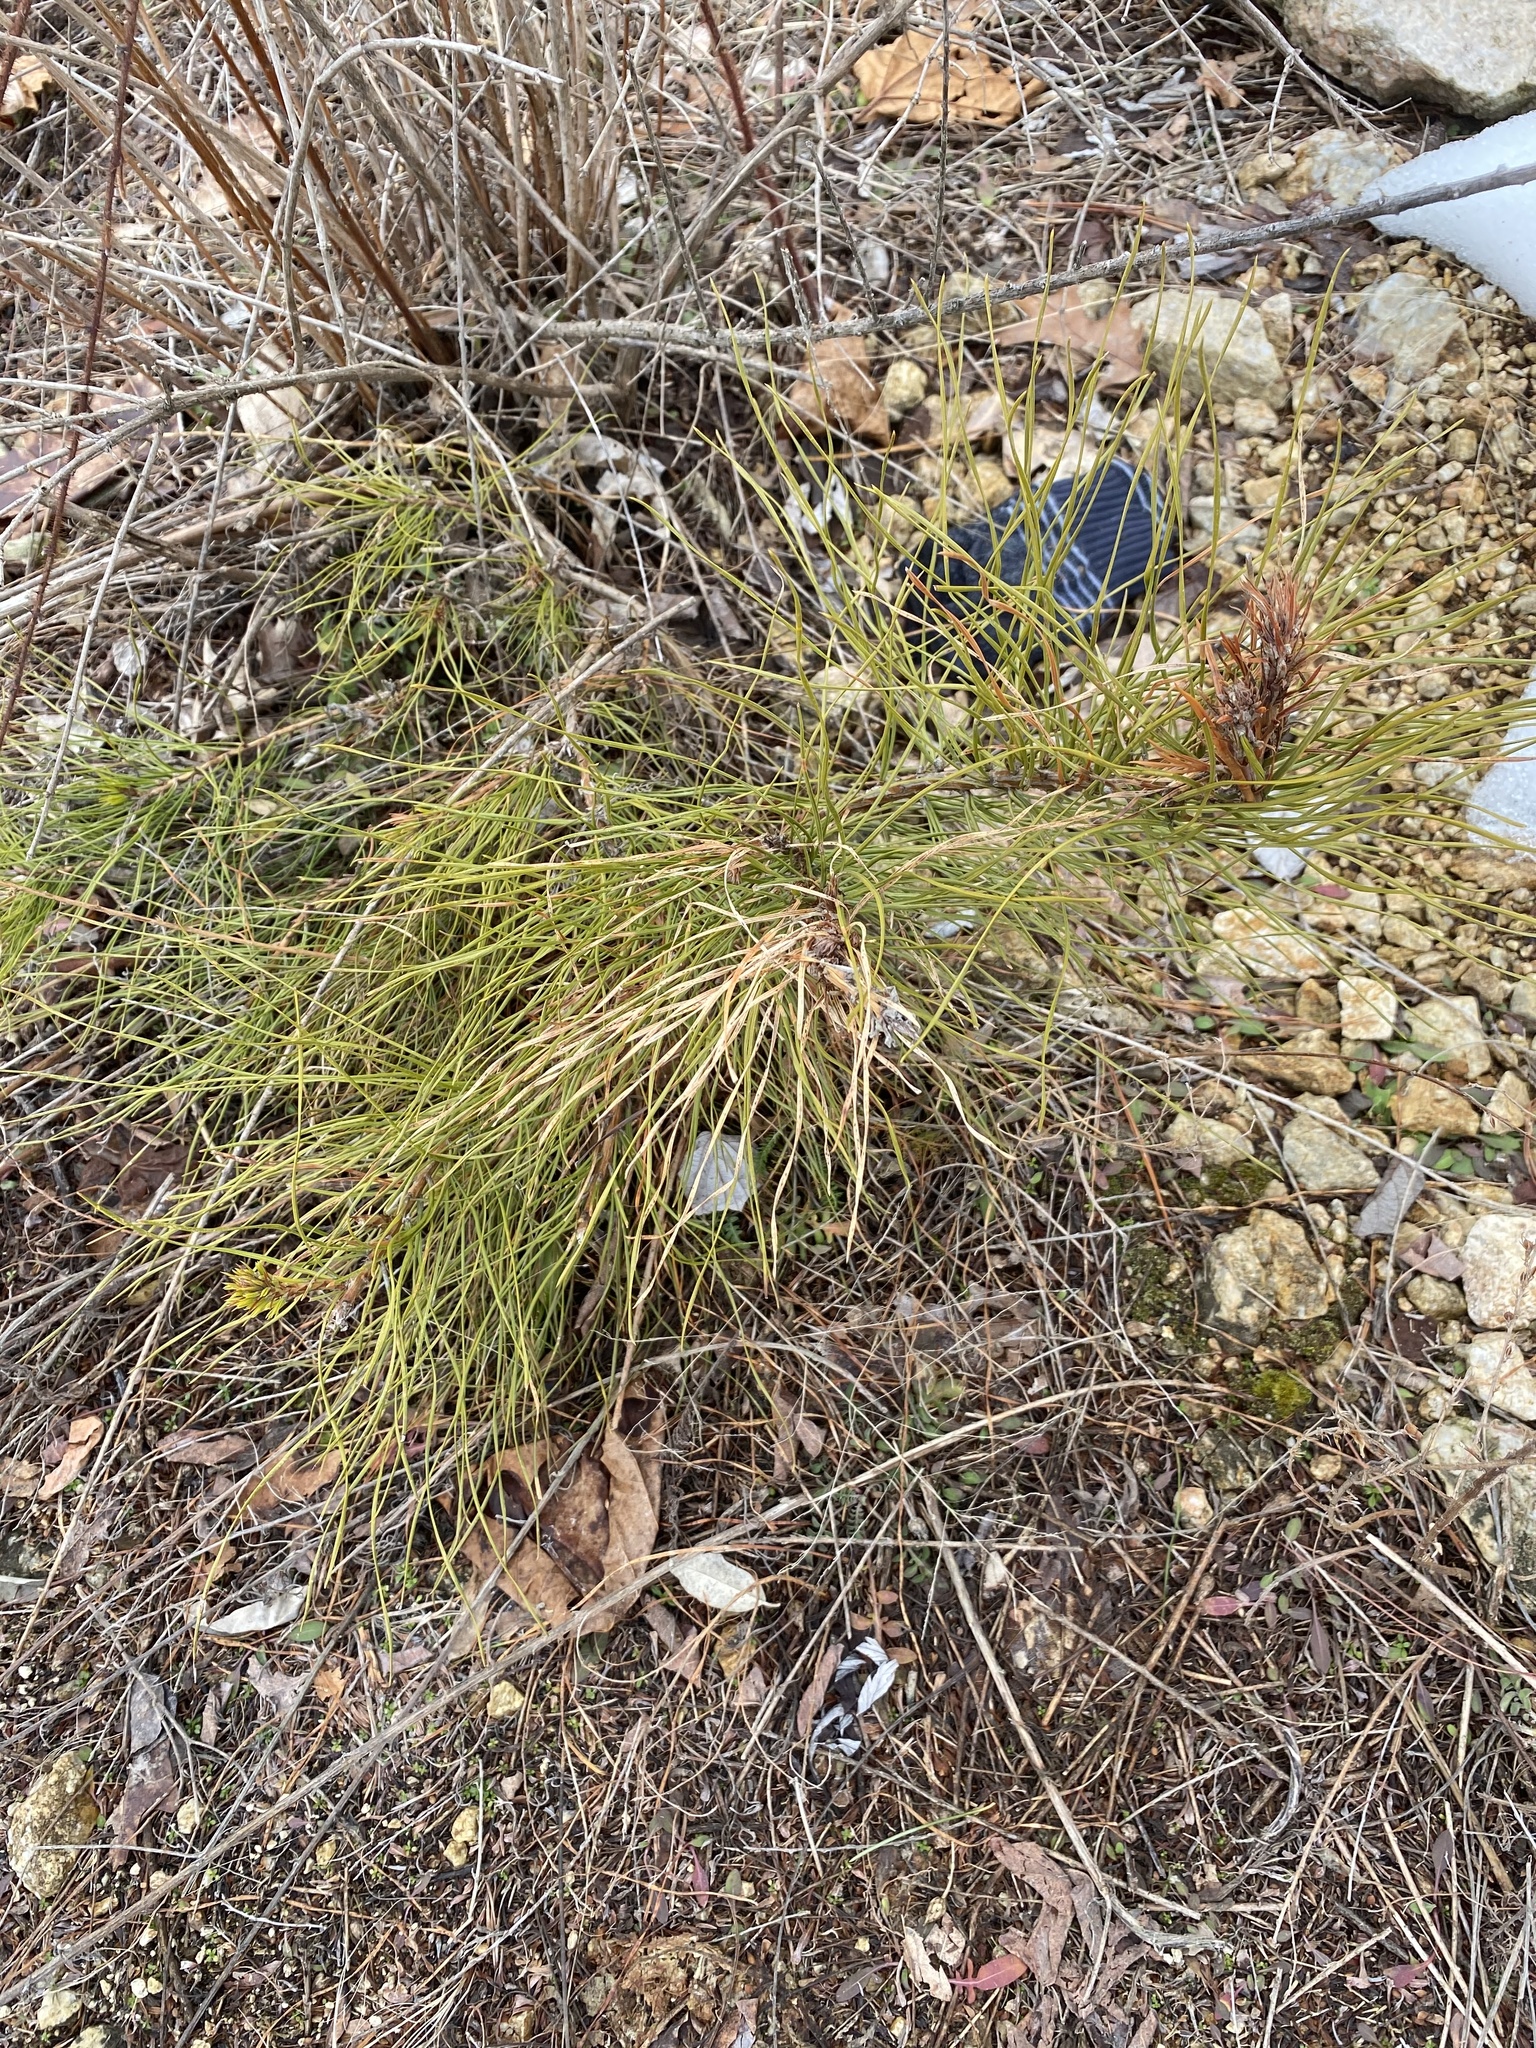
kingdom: Plantae
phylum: Tracheophyta
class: Pinopsida
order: Pinales
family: Pinaceae
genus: Pinus
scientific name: Pinus rigida
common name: Pitch pine
